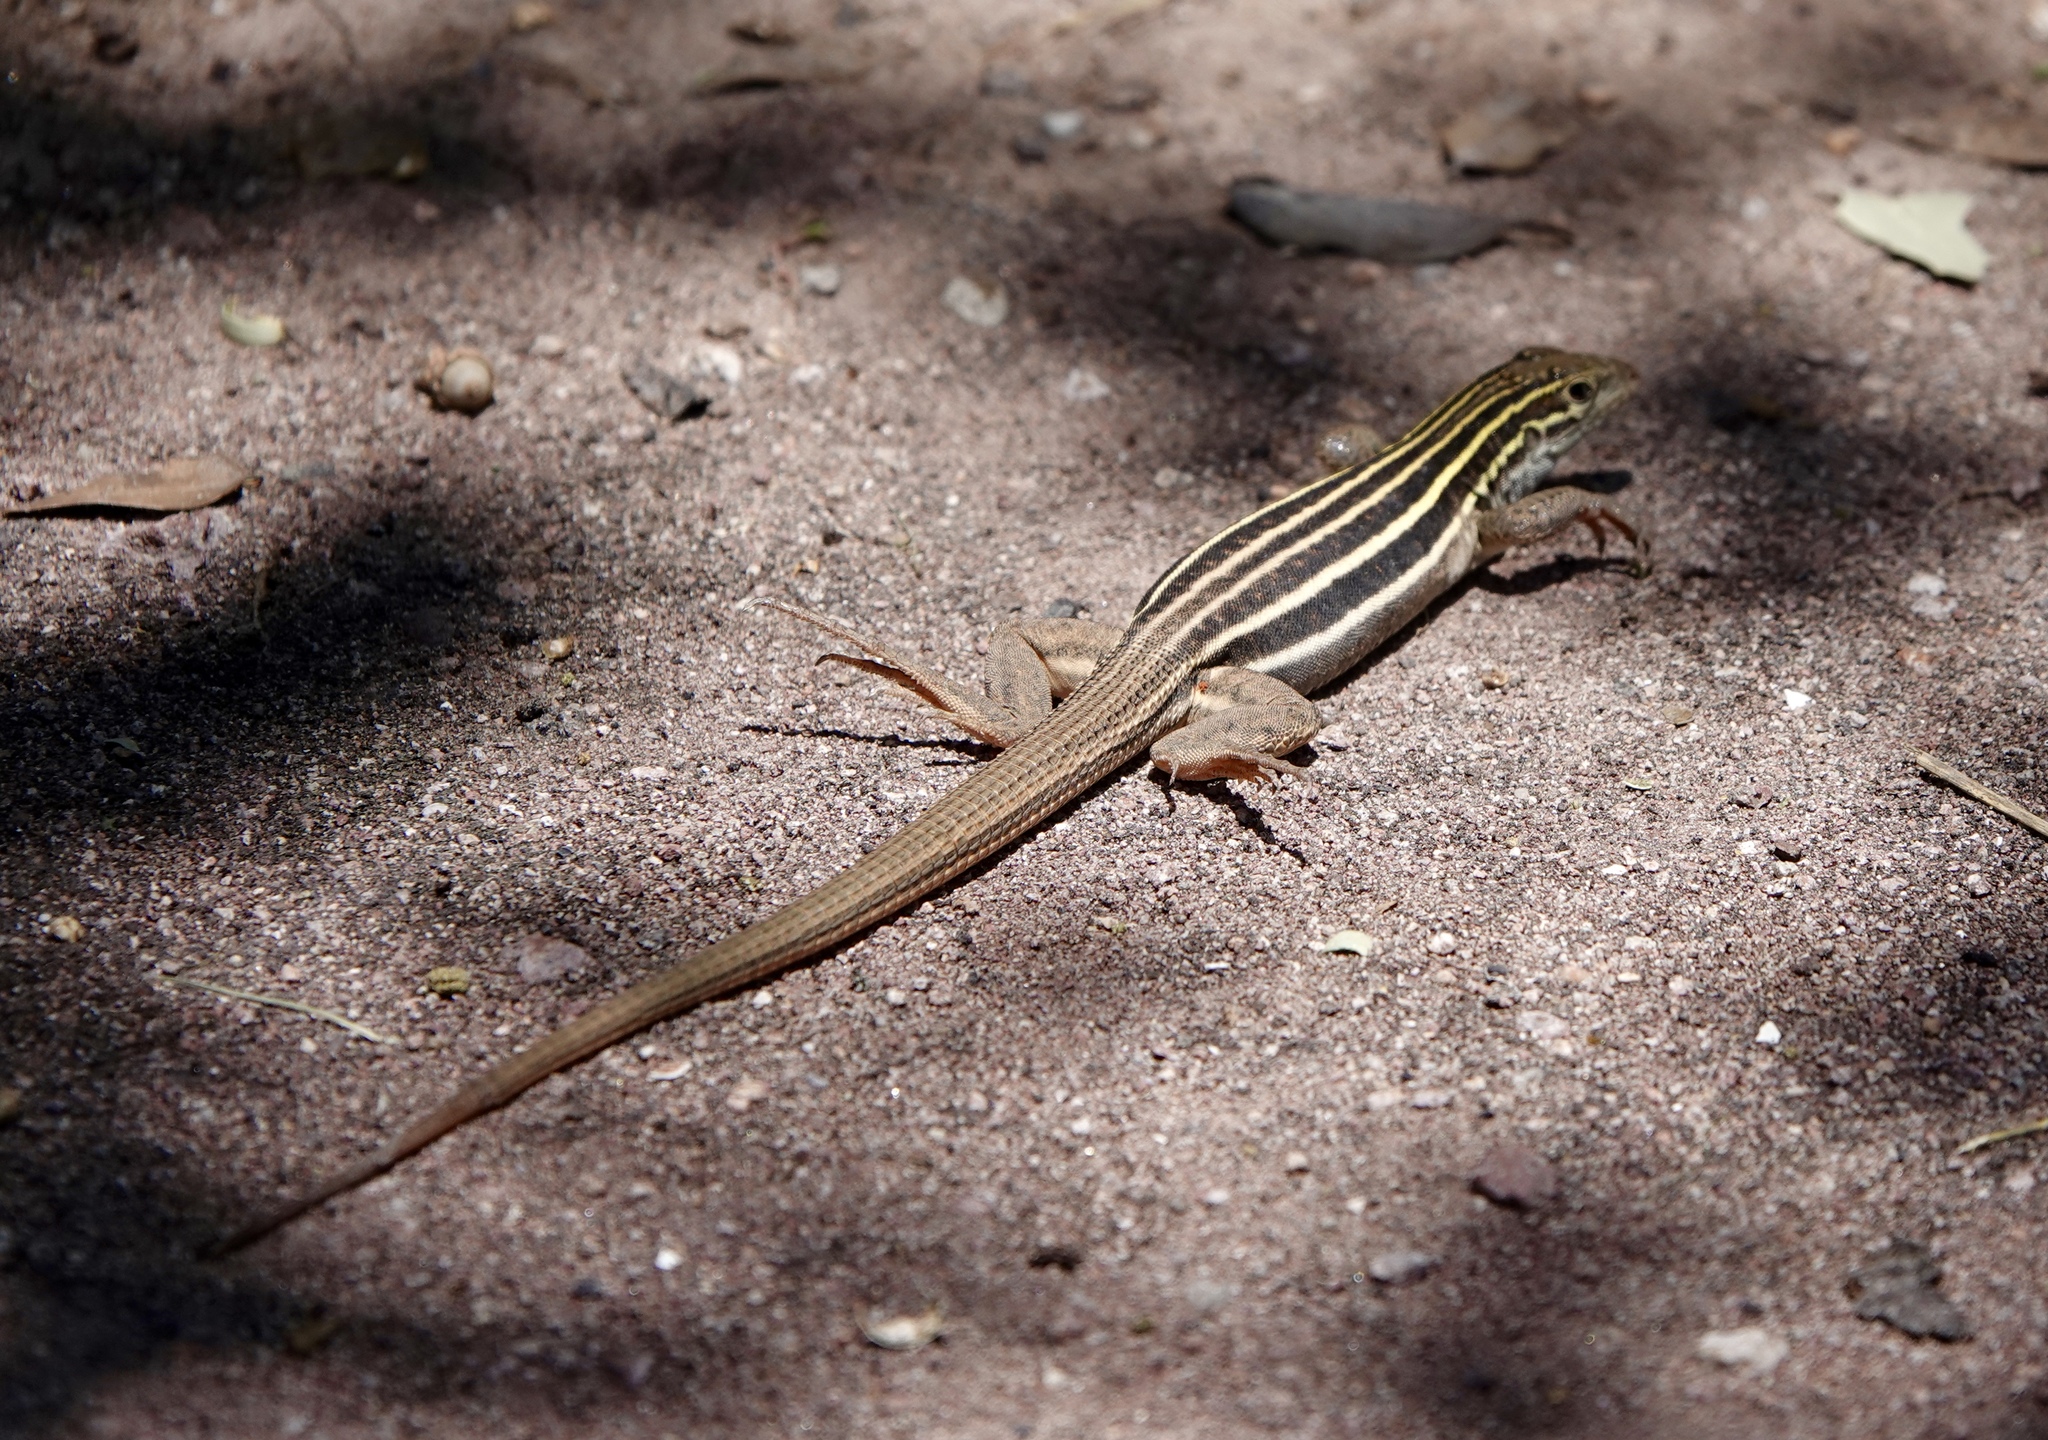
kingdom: Animalia
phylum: Chordata
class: Squamata
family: Teiidae
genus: Aspidoscelis
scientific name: Aspidoscelis sonorae
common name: Sonoran spotted whiptail
